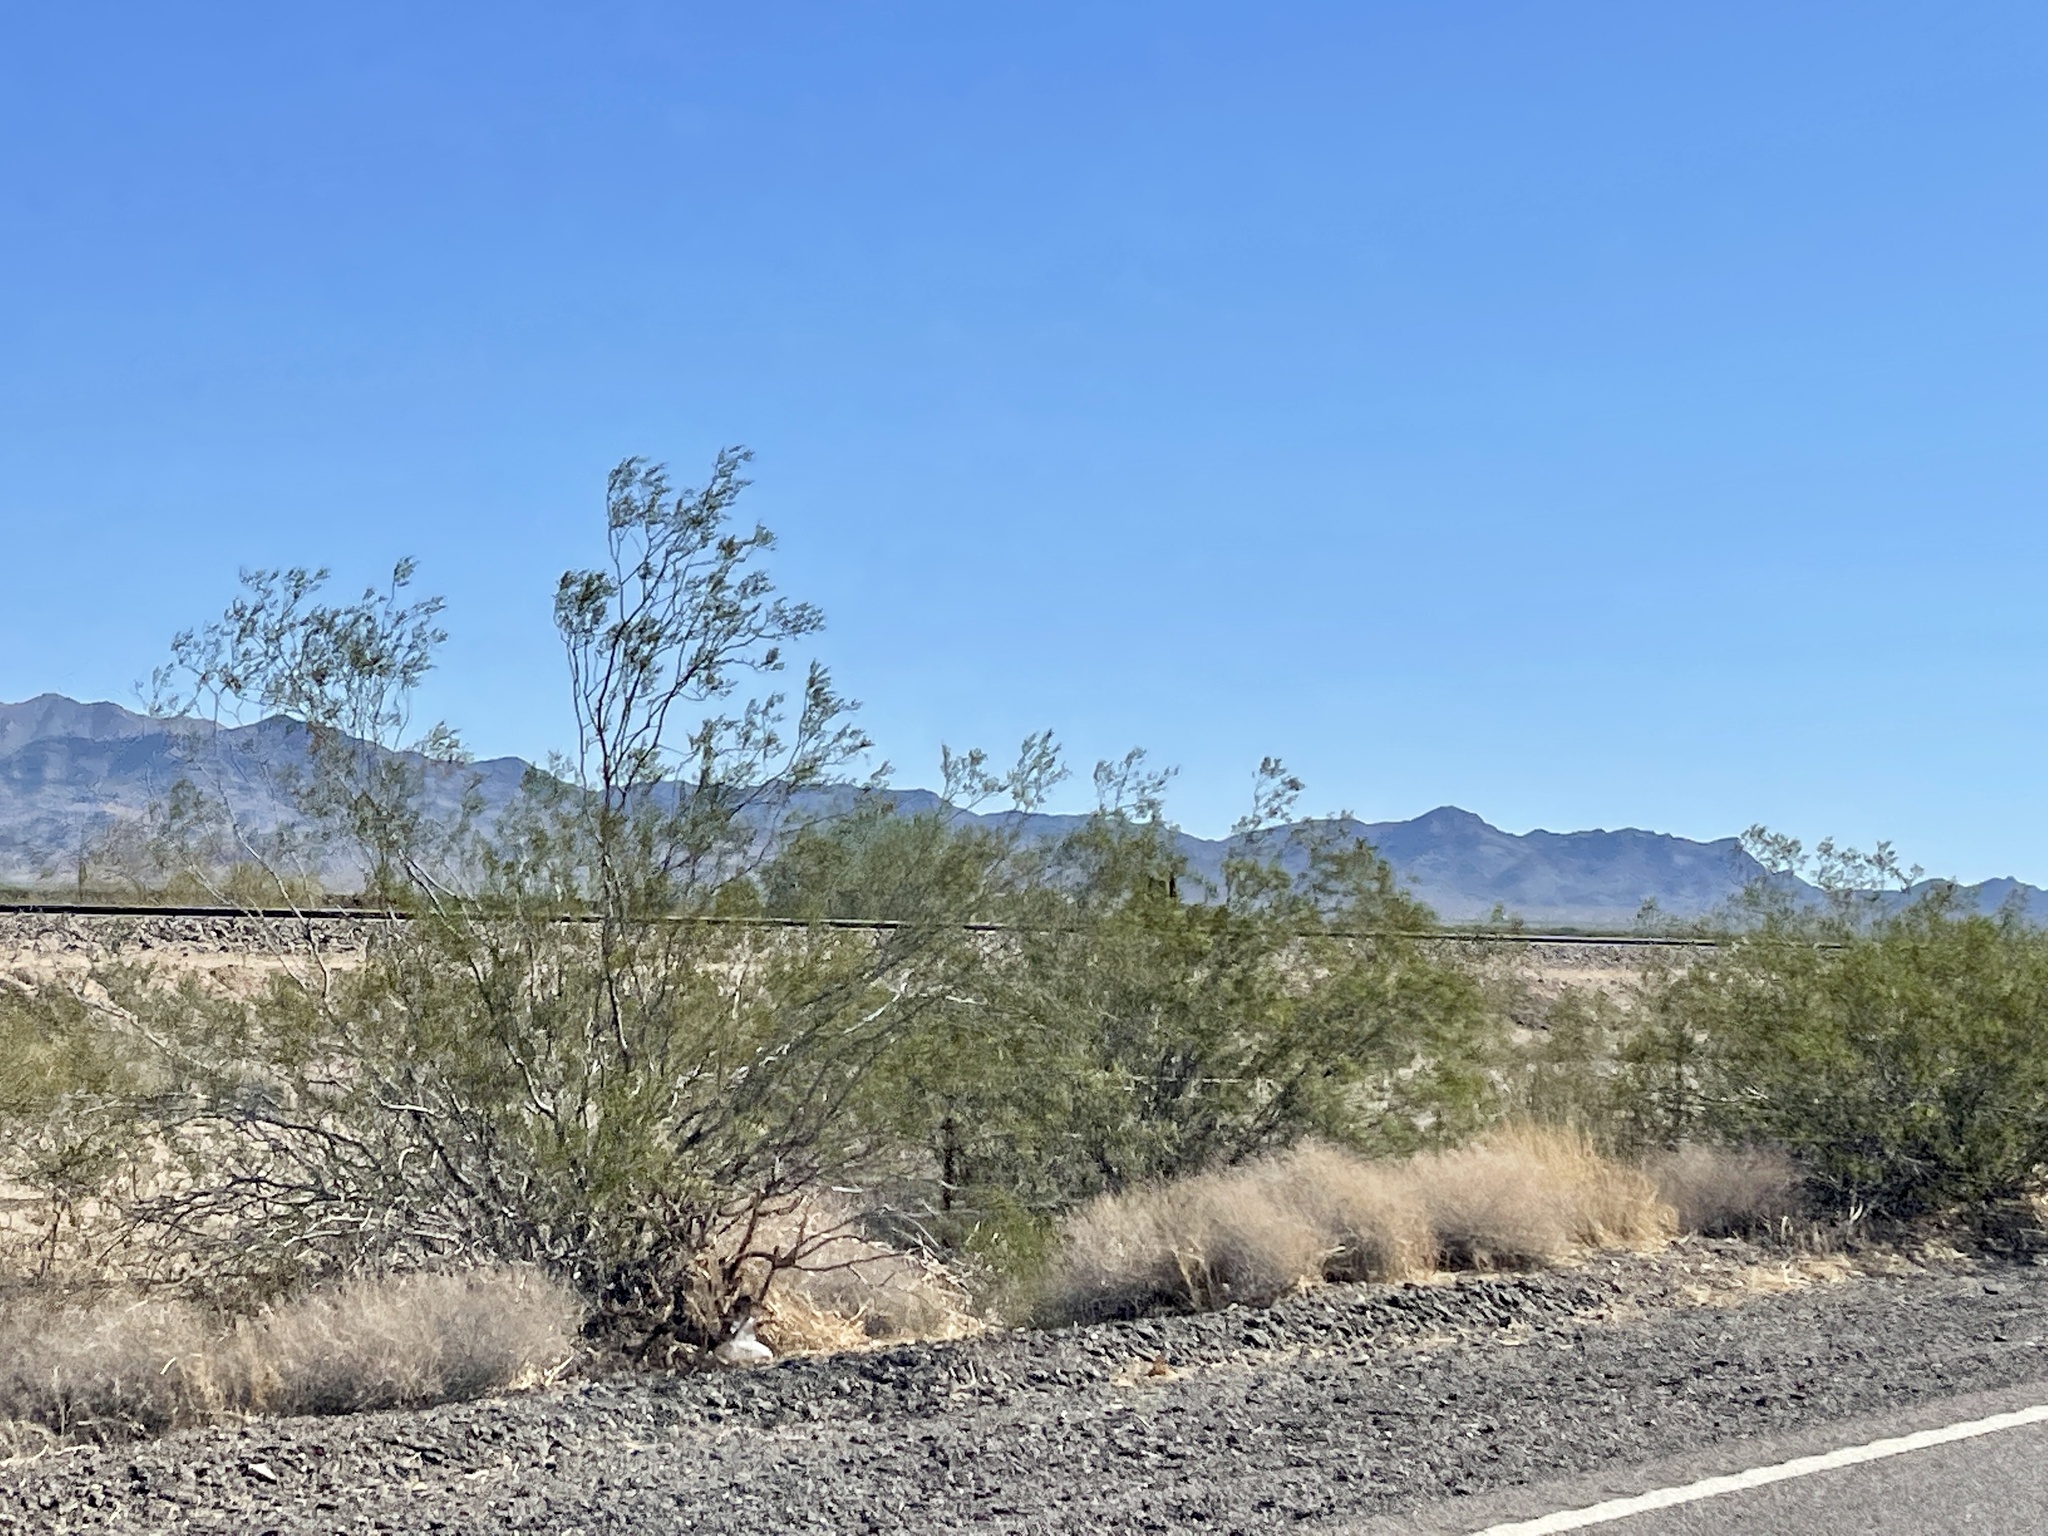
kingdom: Plantae
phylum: Tracheophyta
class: Magnoliopsida
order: Zygophyllales
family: Zygophyllaceae
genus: Larrea
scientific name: Larrea tridentata
